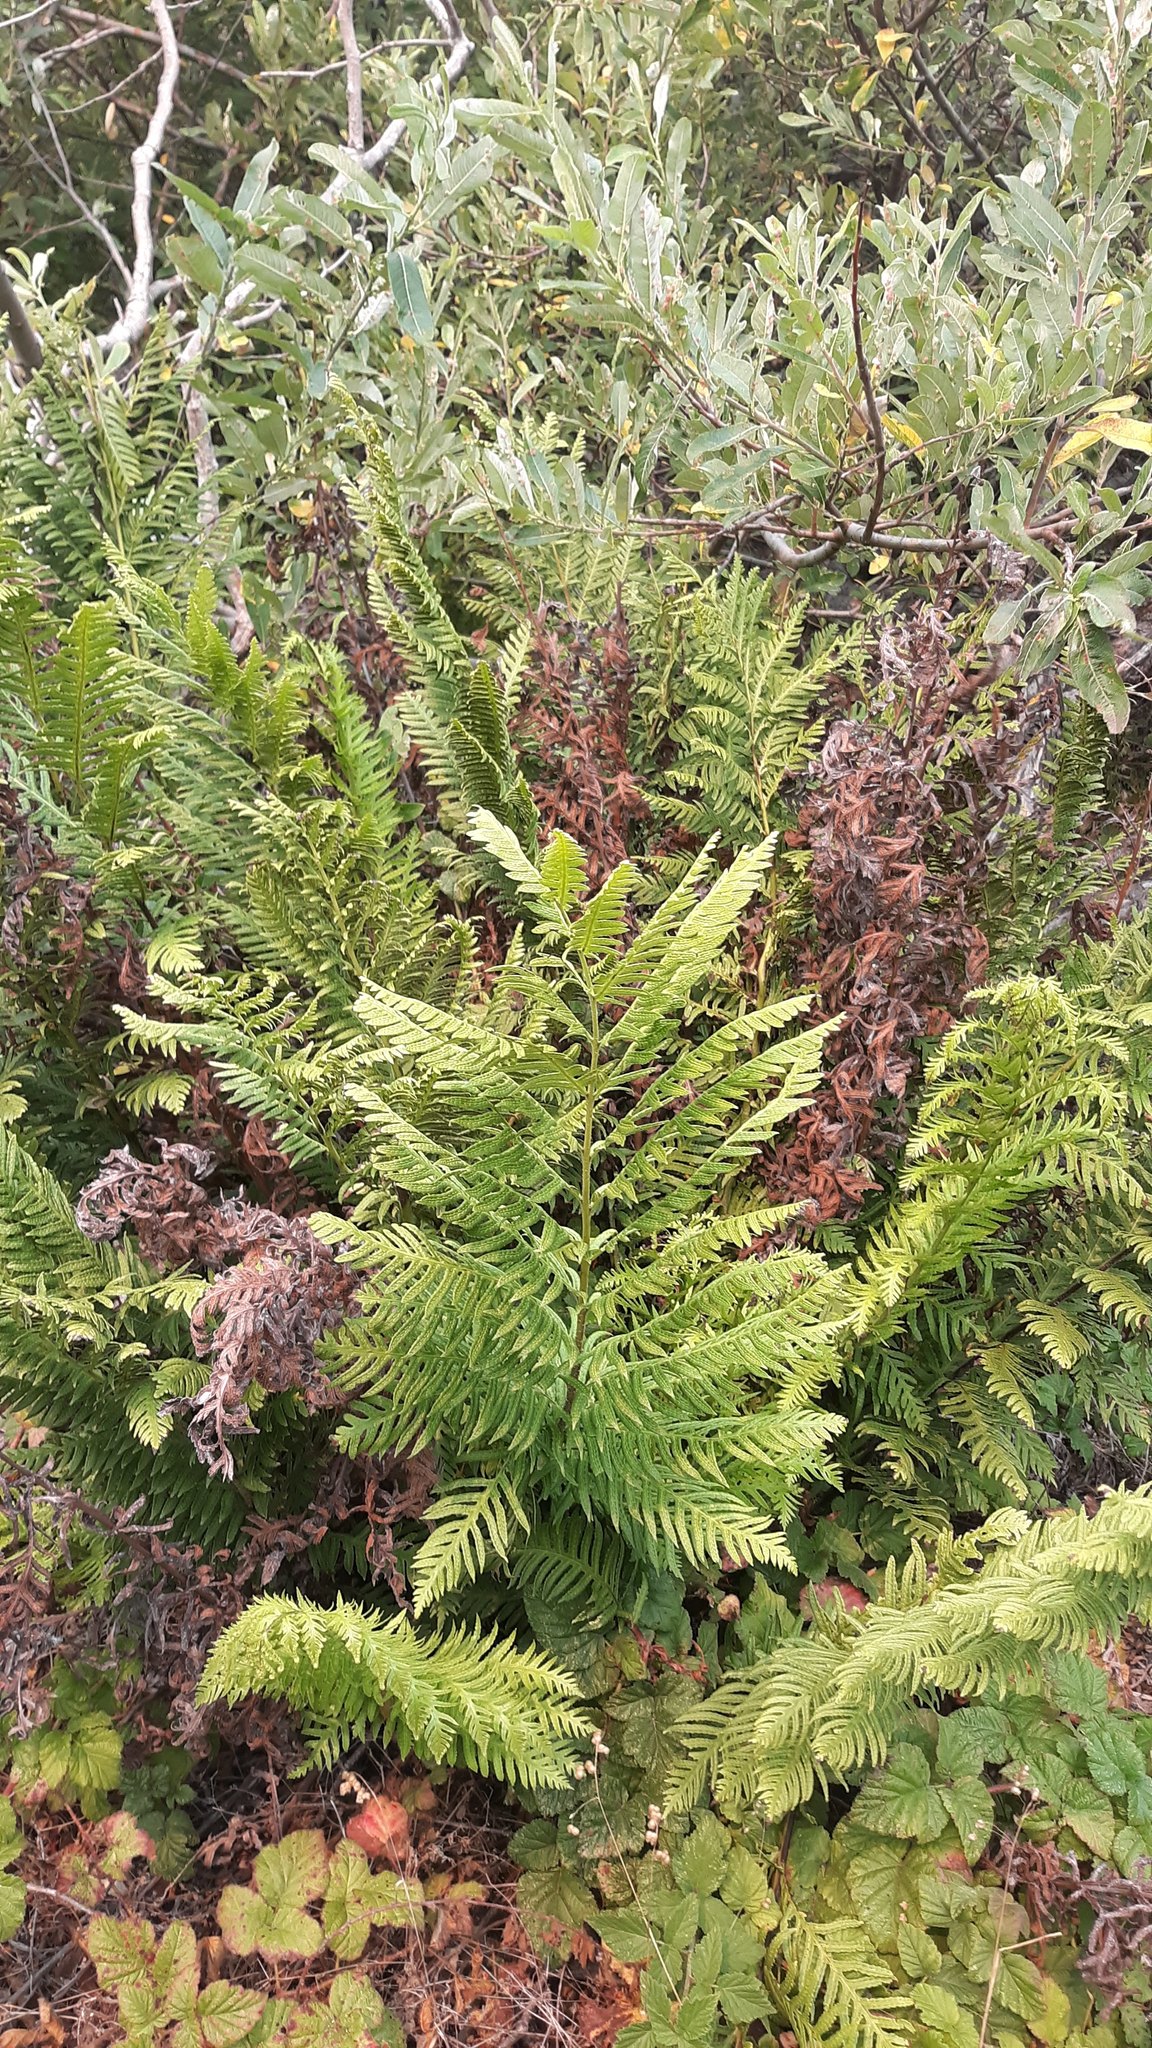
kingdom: Plantae
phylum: Tracheophyta
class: Polypodiopsida
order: Polypodiales
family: Blechnaceae
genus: Woodwardia
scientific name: Woodwardia fimbriata
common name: Giant chain fern
